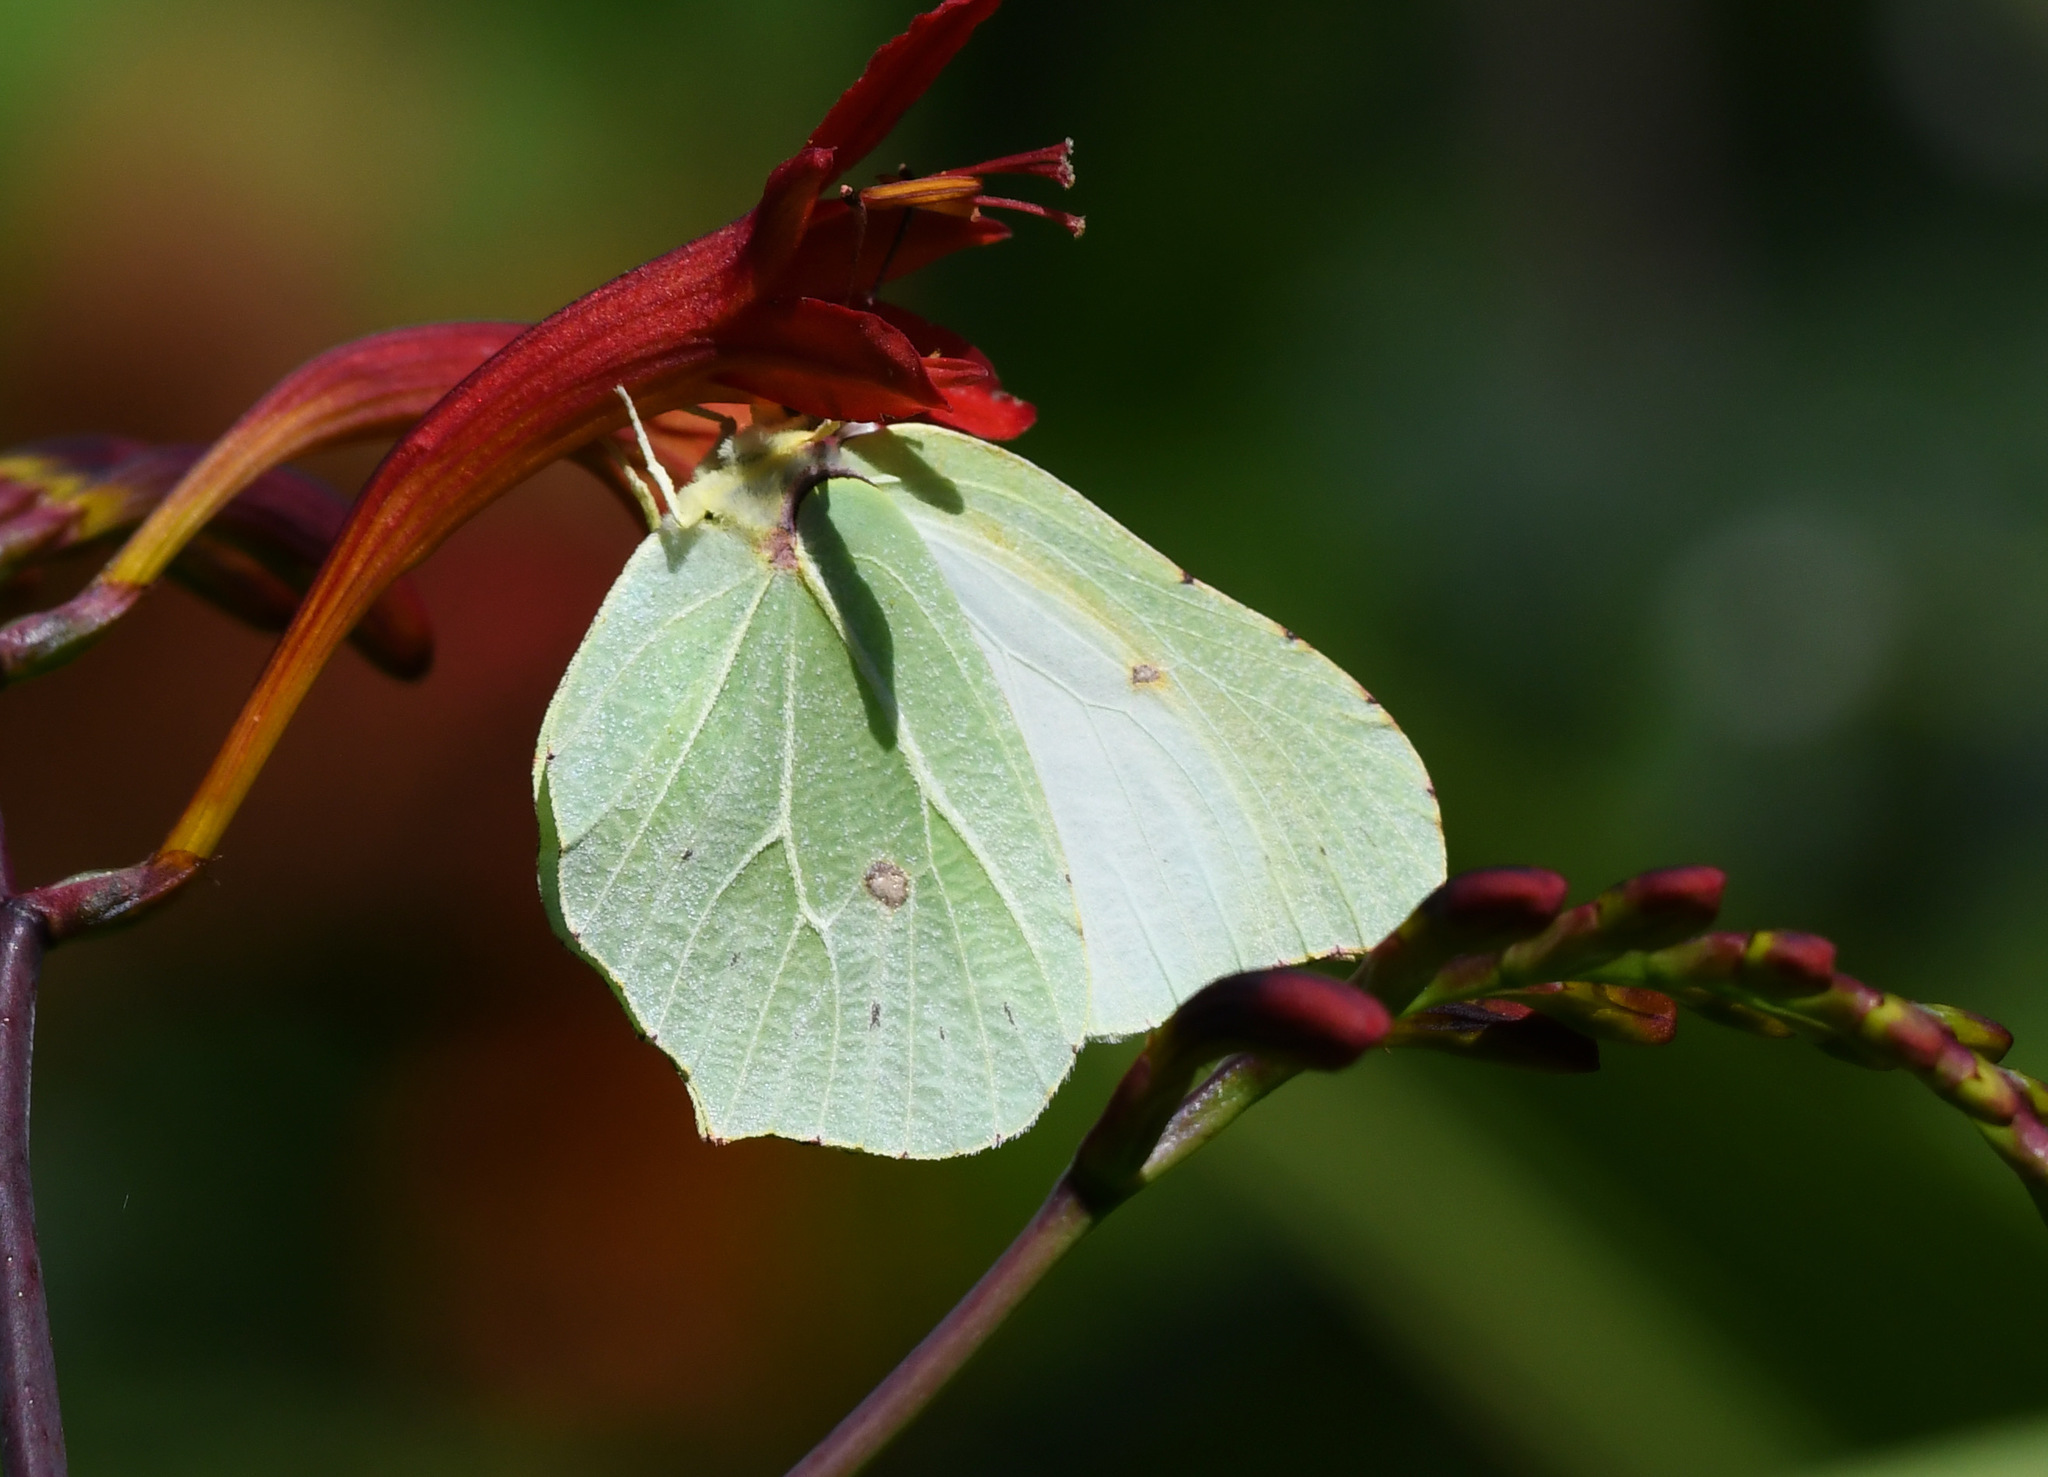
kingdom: Animalia
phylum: Arthropoda
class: Insecta
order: Lepidoptera
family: Pieridae
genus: Gonepteryx
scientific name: Gonepteryx rhamni
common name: Brimstone
